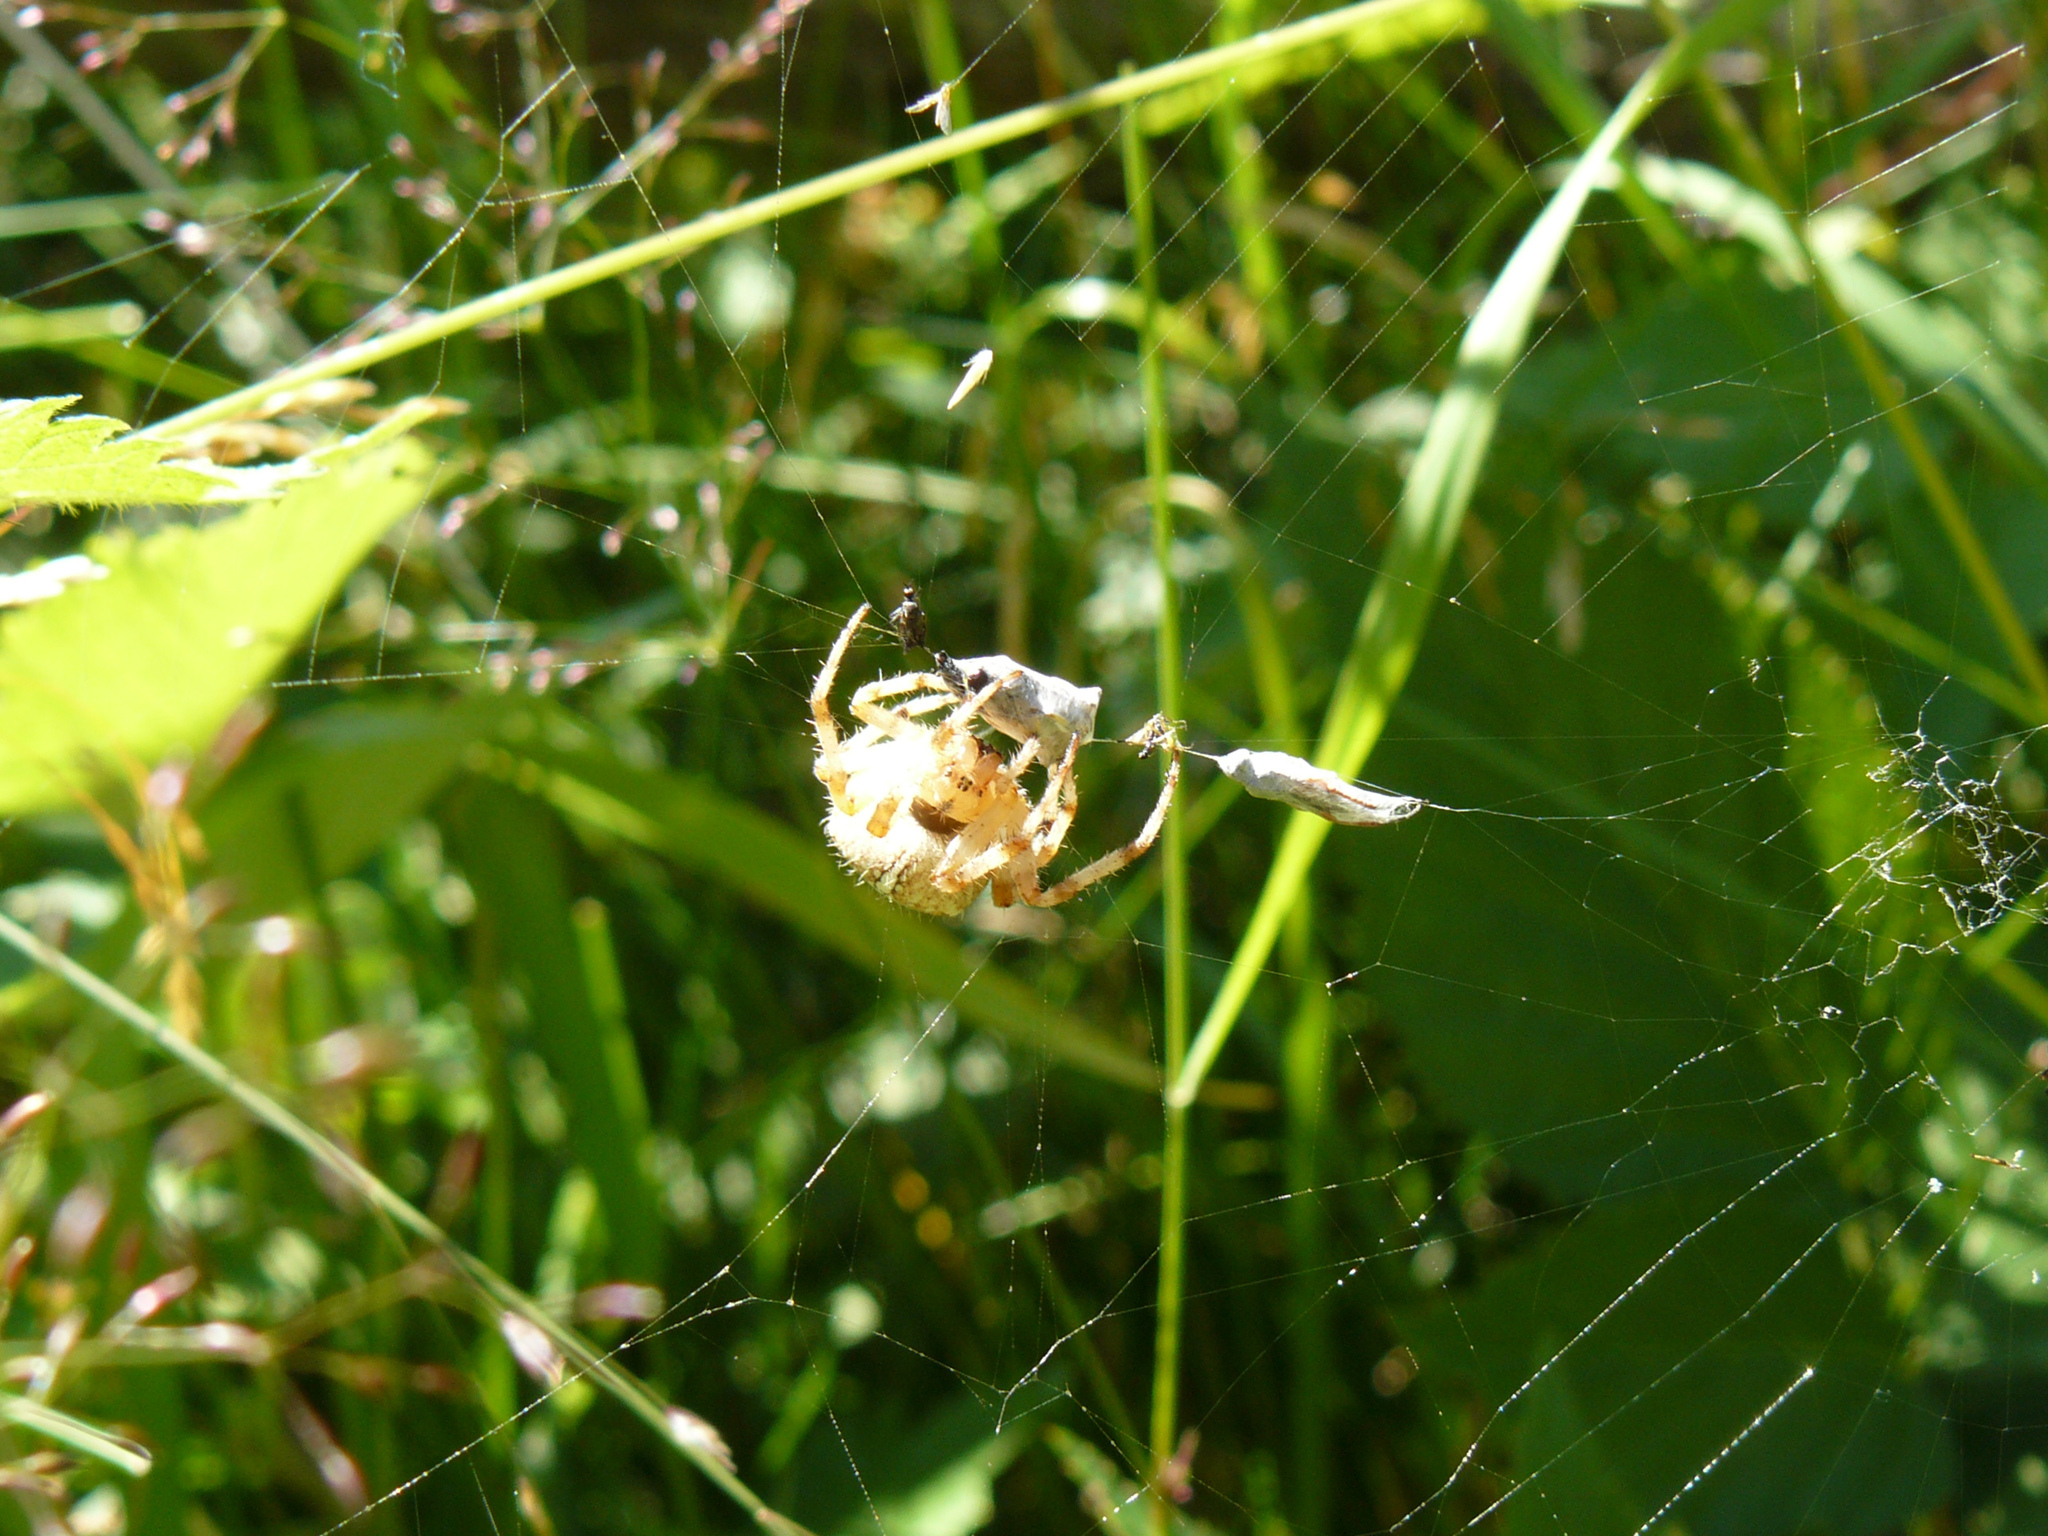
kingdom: Animalia
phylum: Arthropoda
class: Arachnida
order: Araneae
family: Araneidae
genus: Araneus
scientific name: Araneus diadematus
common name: Cross orbweaver
